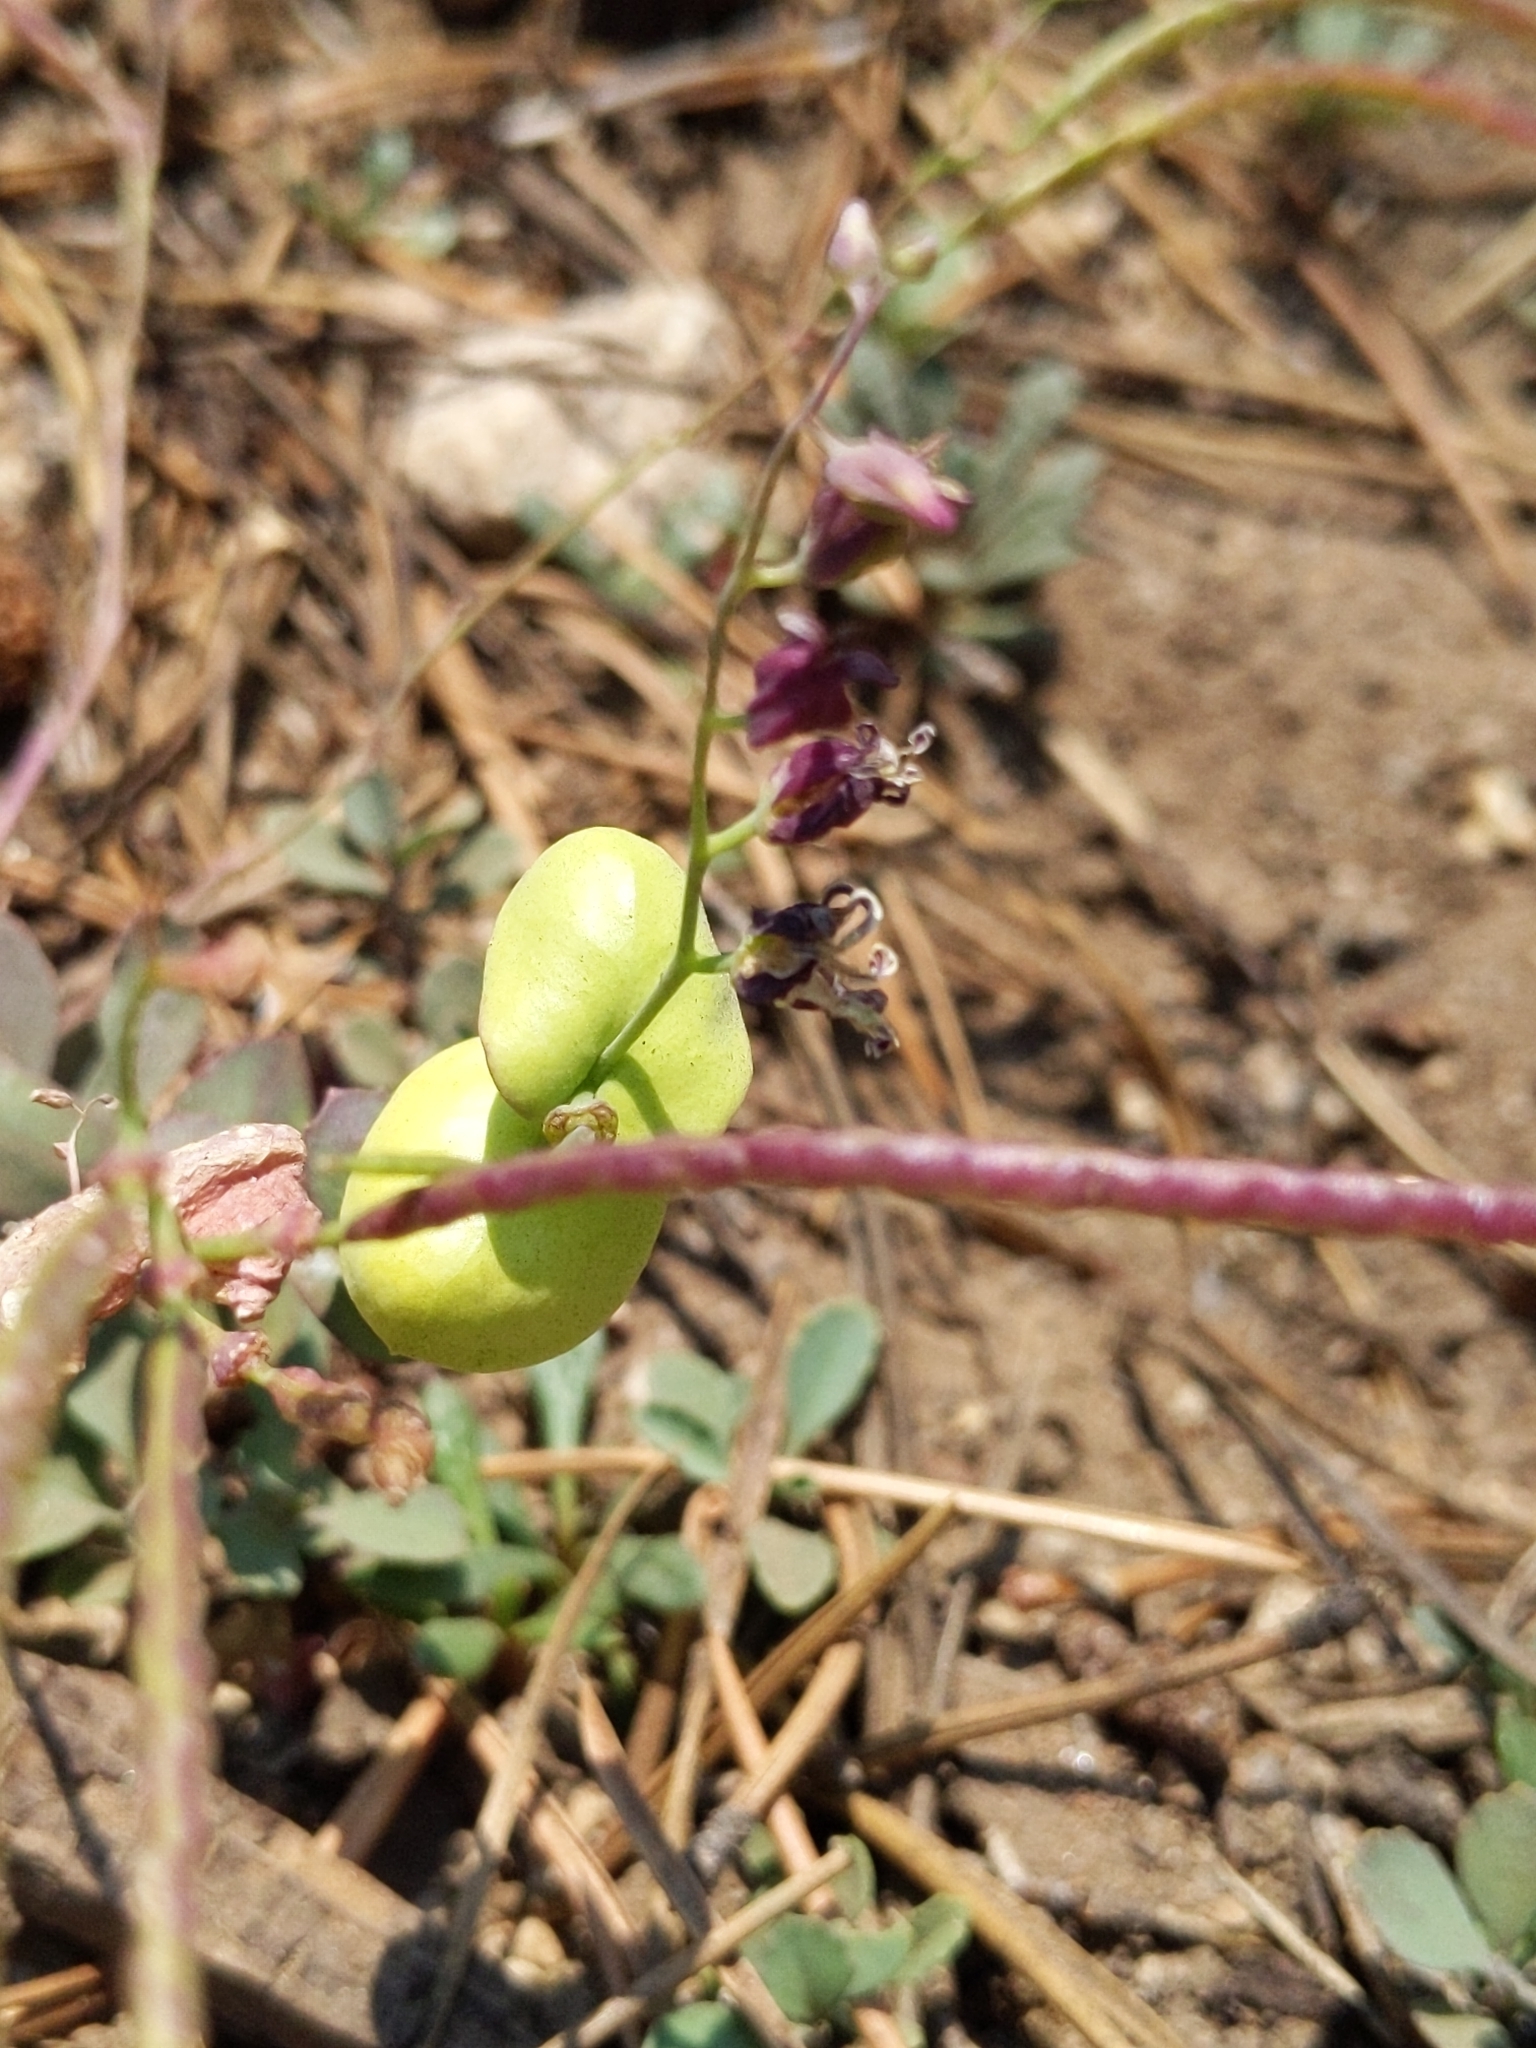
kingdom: Plantae
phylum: Tracheophyta
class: Magnoliopsida
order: Brassicales
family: Brassicaceae
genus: Streptanthus
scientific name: Streptanthus tortuosus
